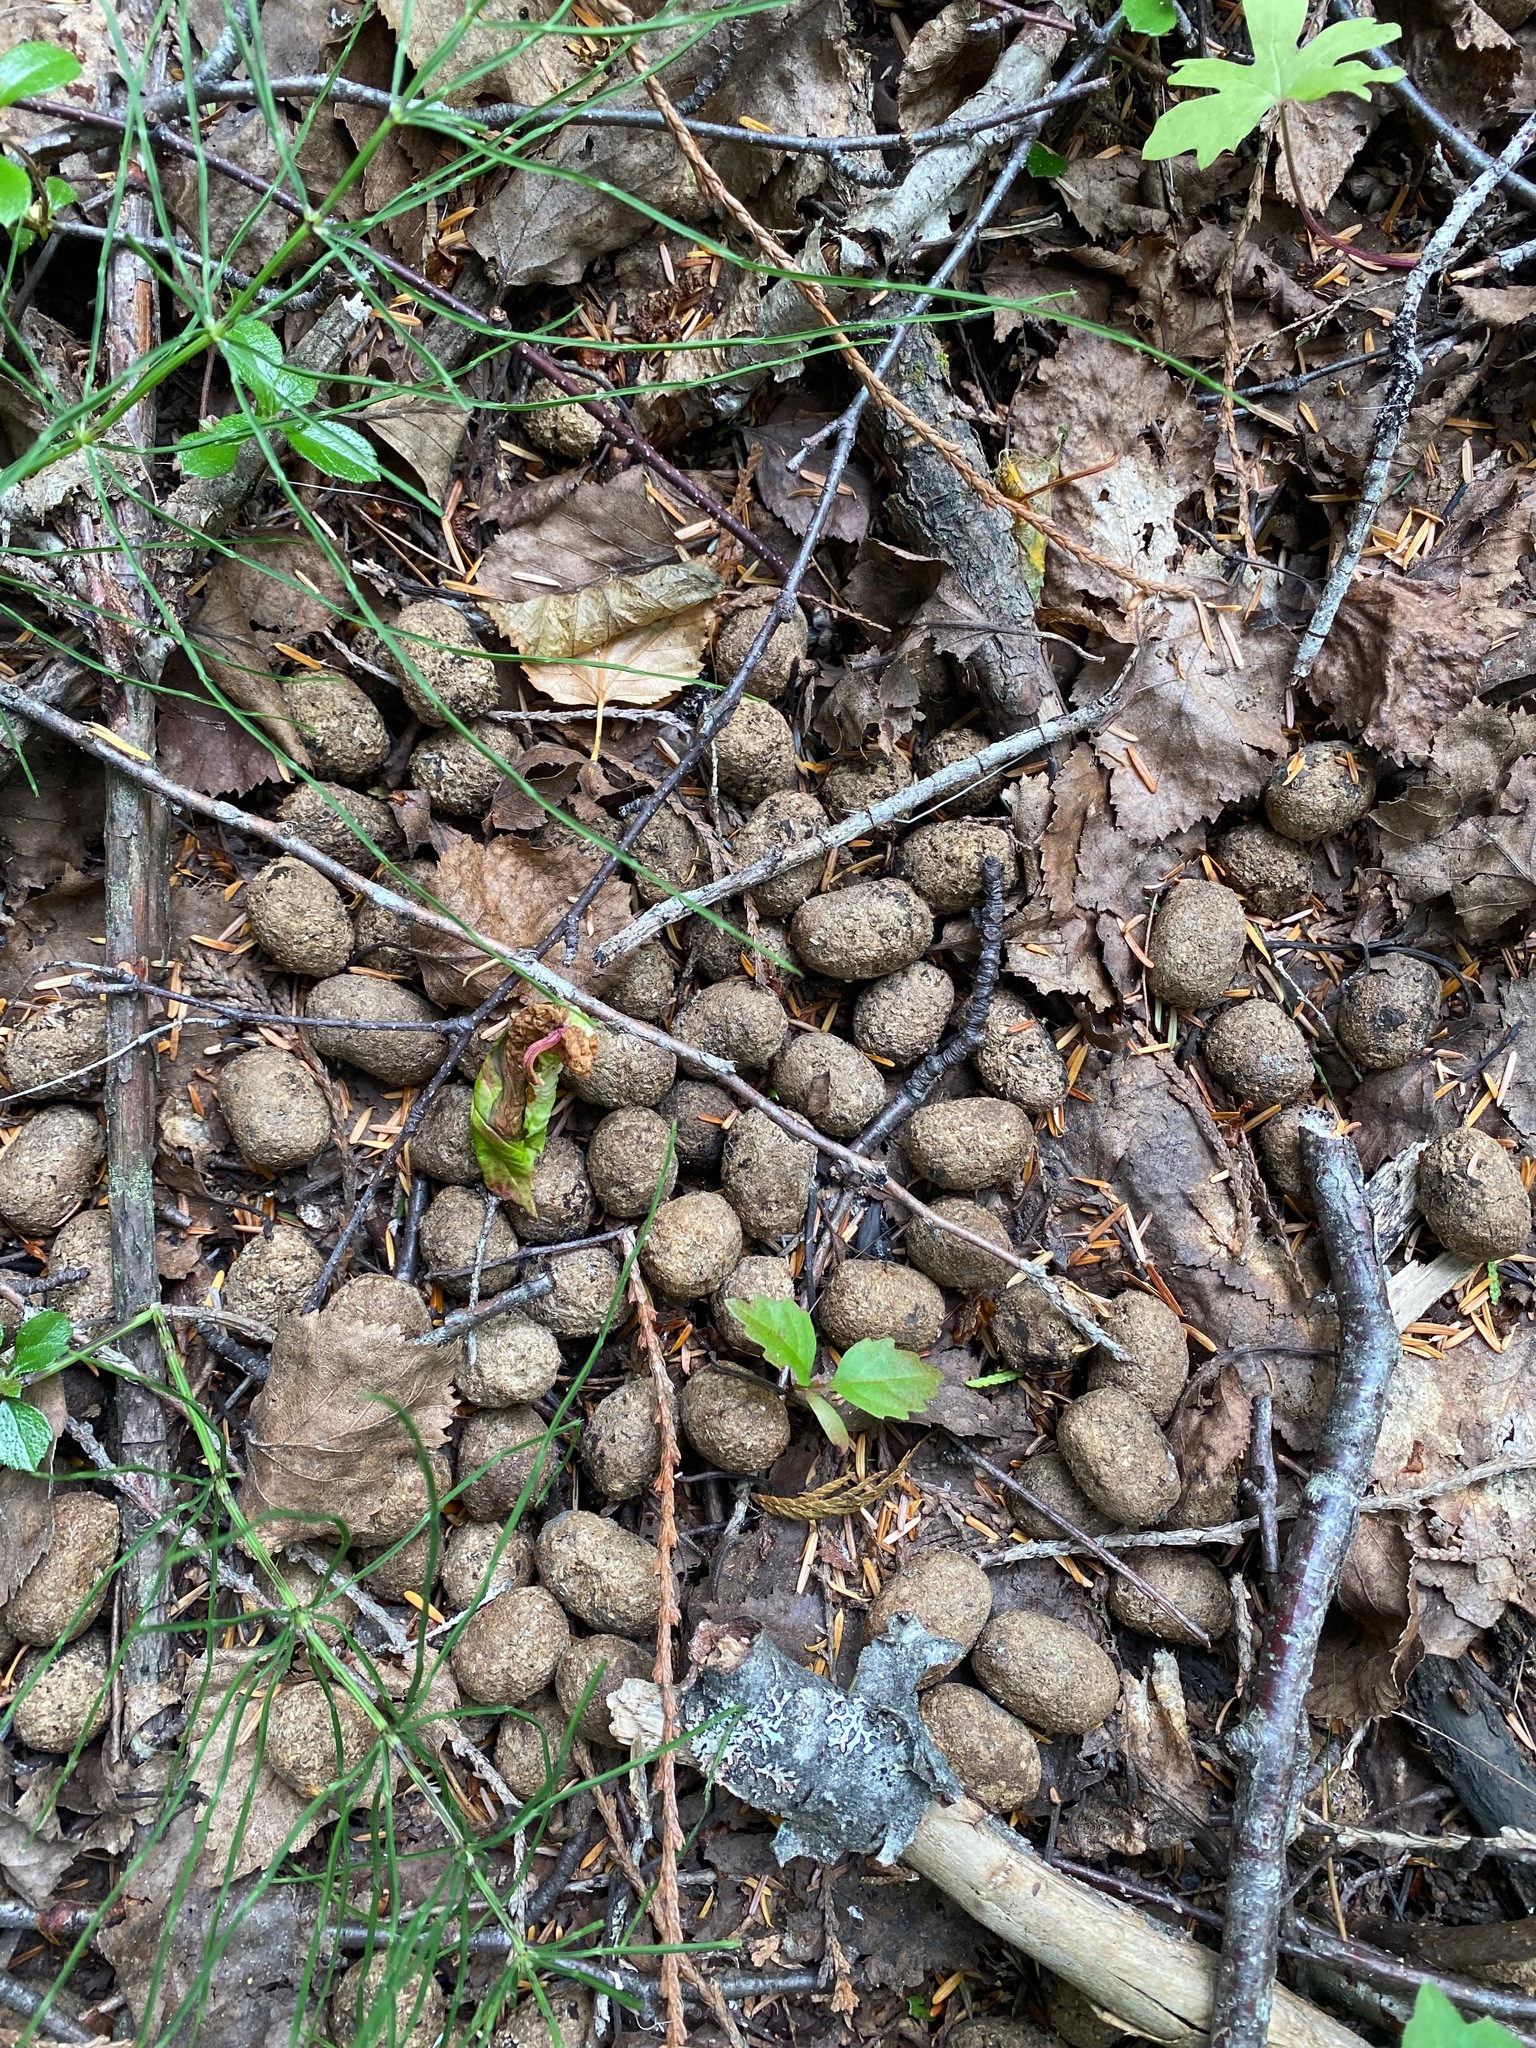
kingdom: Animalia
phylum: Chordata
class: Mammalia
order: Artiodactyla
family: Cervidae
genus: Alces
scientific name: Alces alces
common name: Moose
